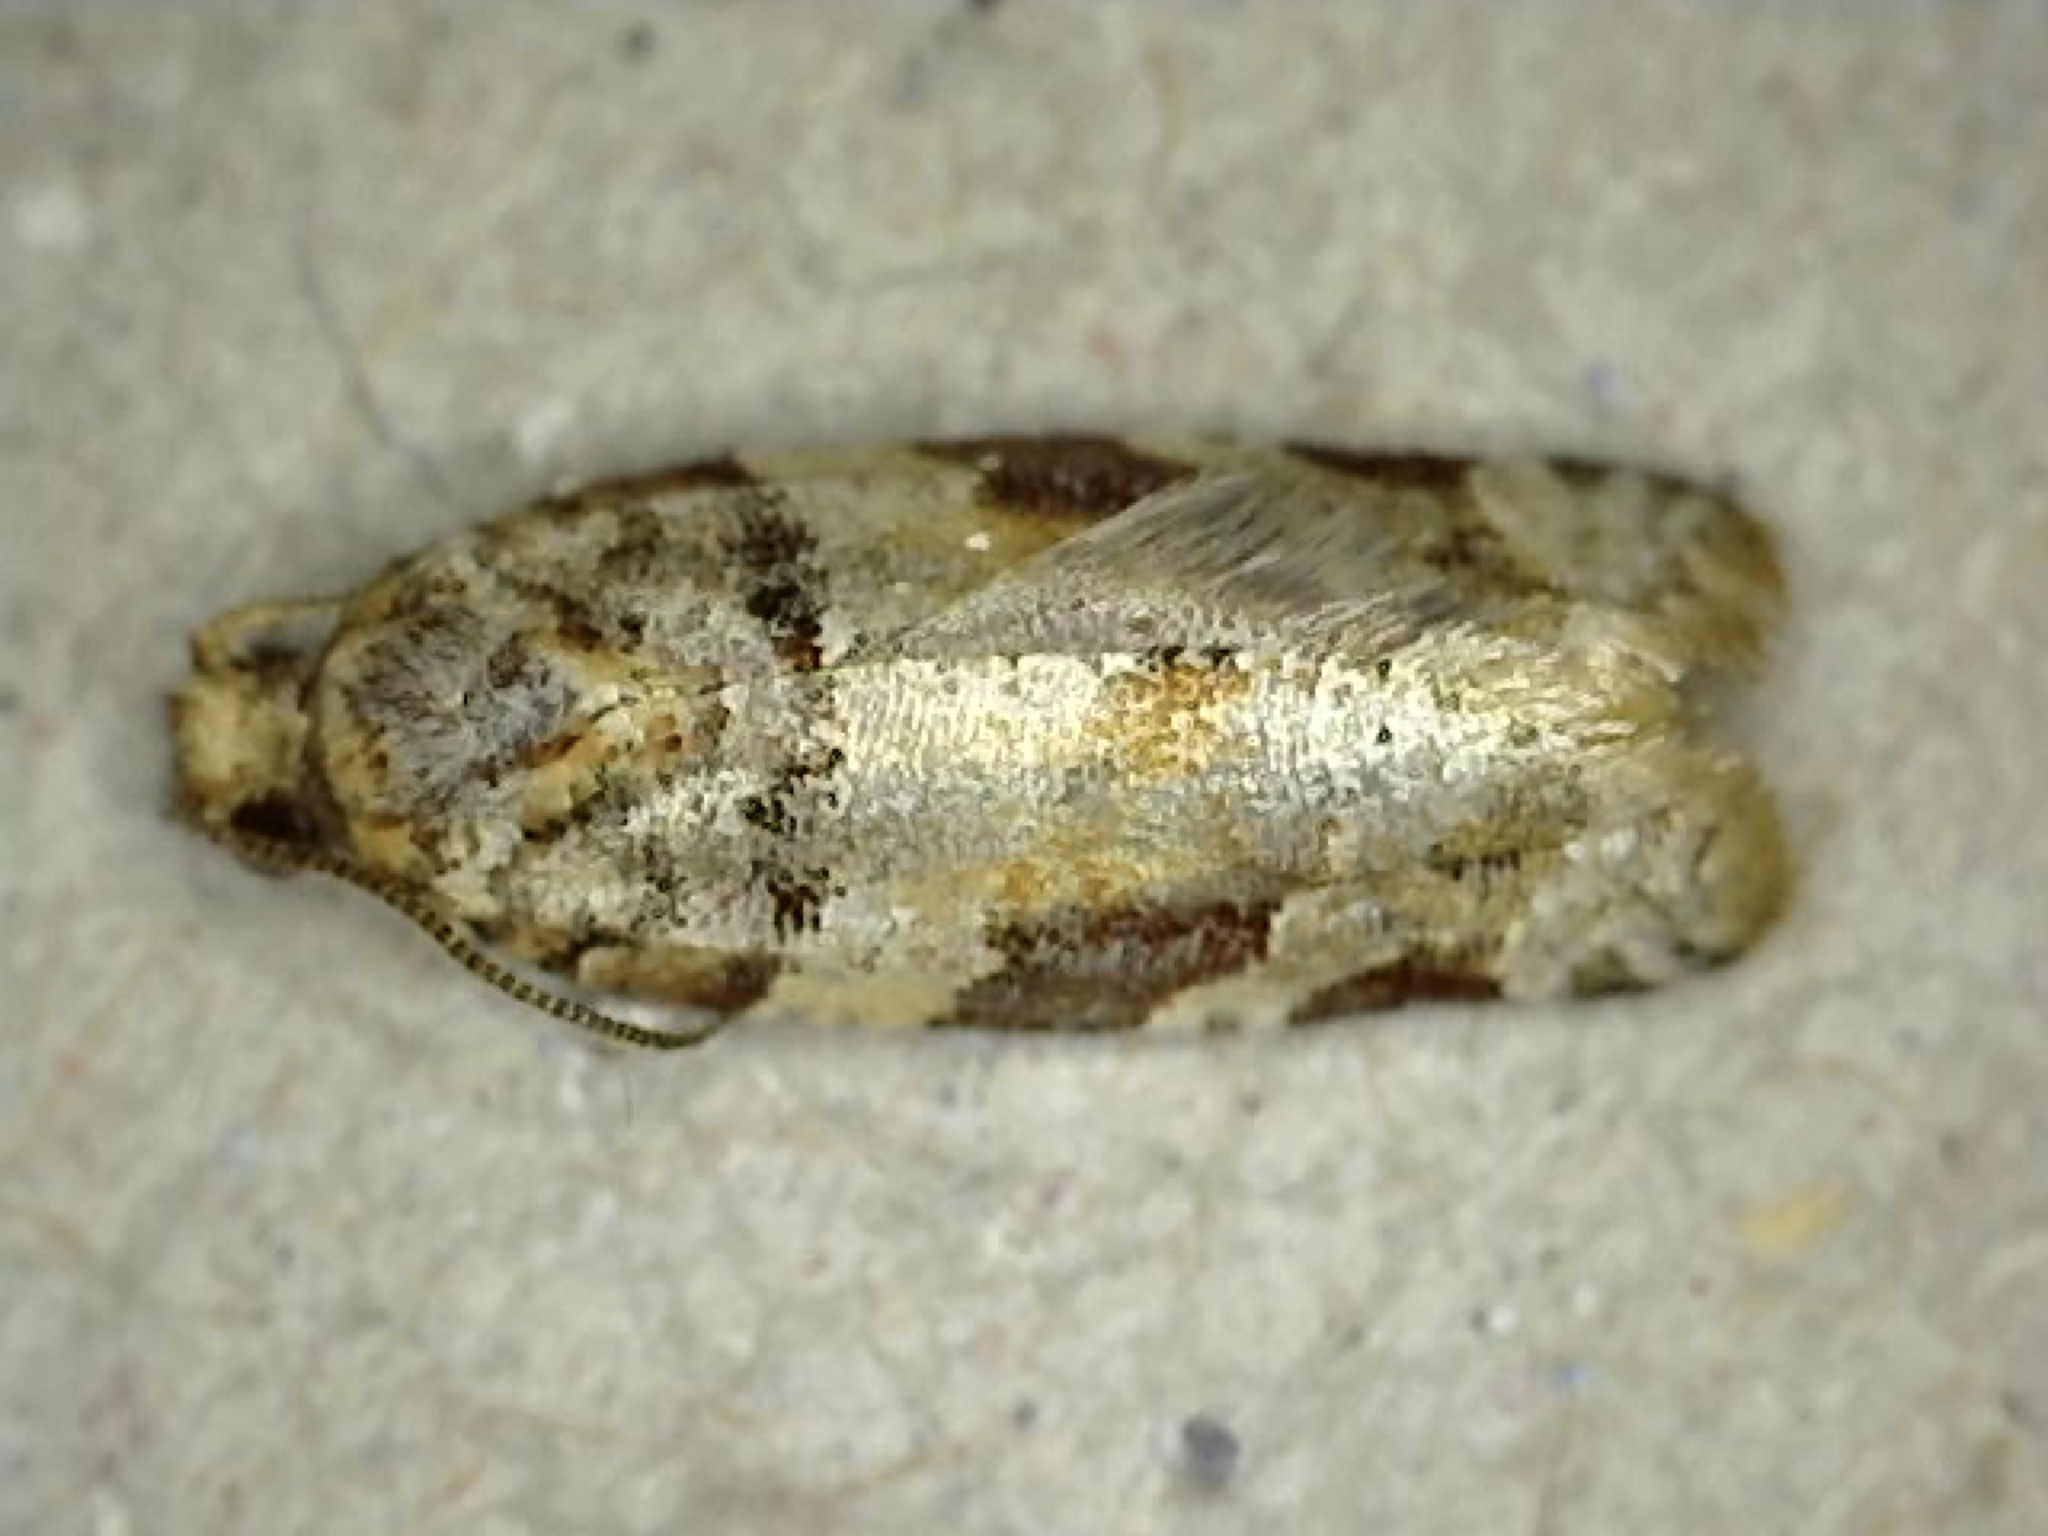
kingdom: Animalia
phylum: Arthropoda
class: Insecta
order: Lepidoptera
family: Tortricidae
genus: Argyrotaenia
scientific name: Argyrotaenia kimballi
